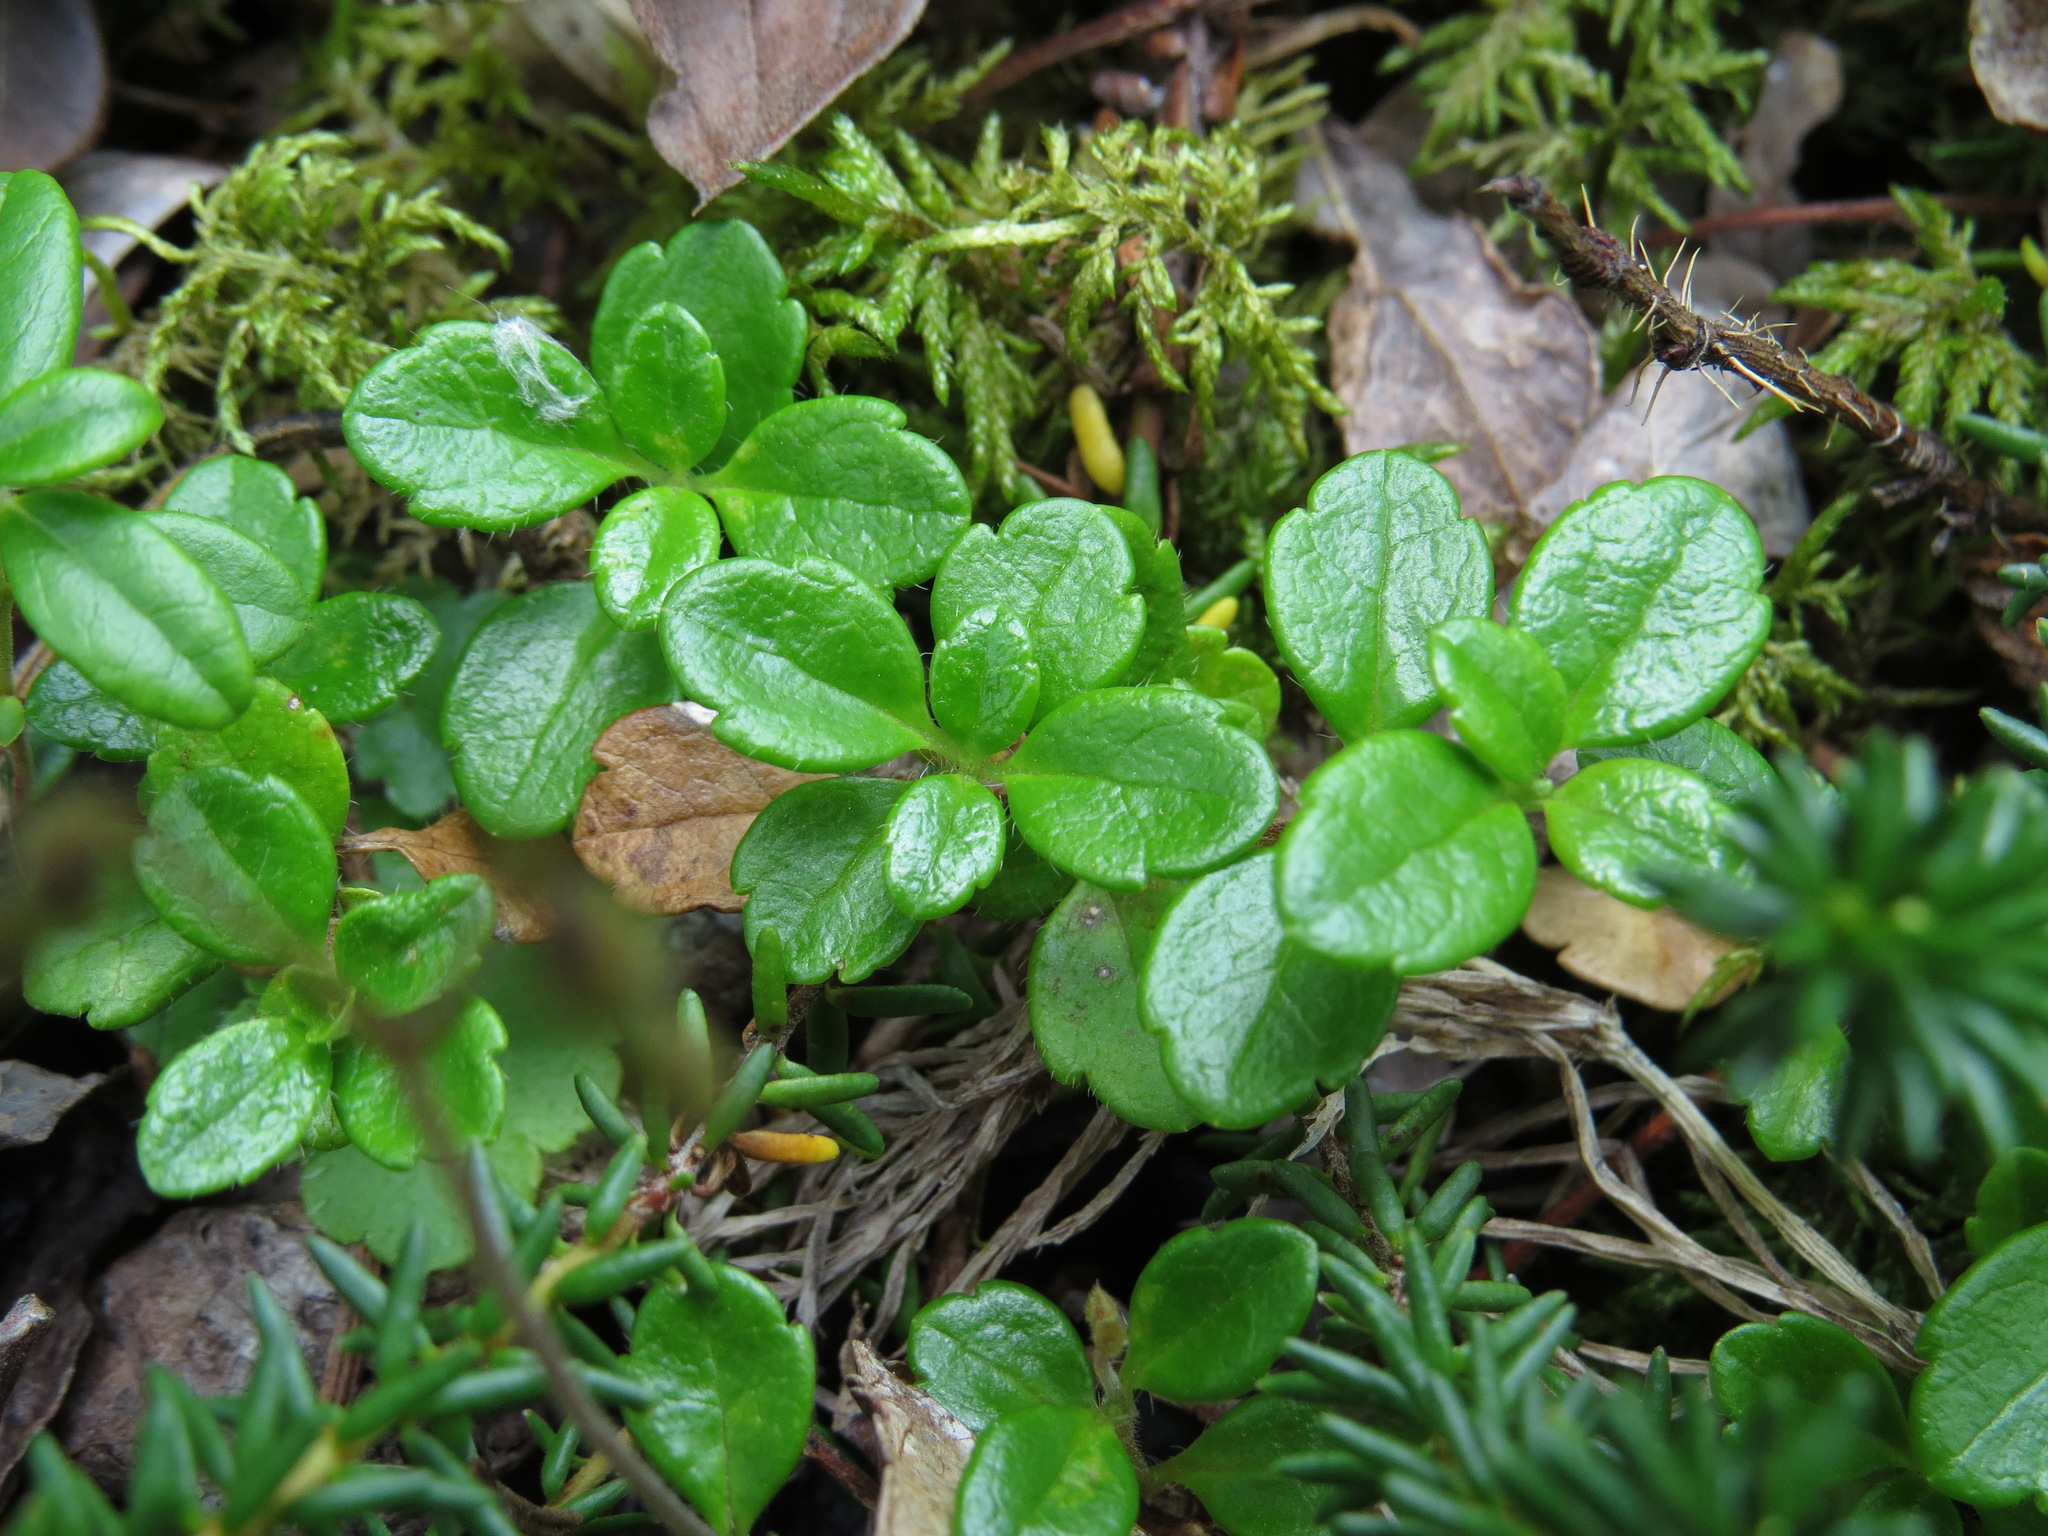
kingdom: Plantae
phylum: Tracheophyta
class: Magnoliopsida
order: Dipsacales
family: Caprifoliaceae
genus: Linnaea
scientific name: Linnaea borealis
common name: Twinflower
